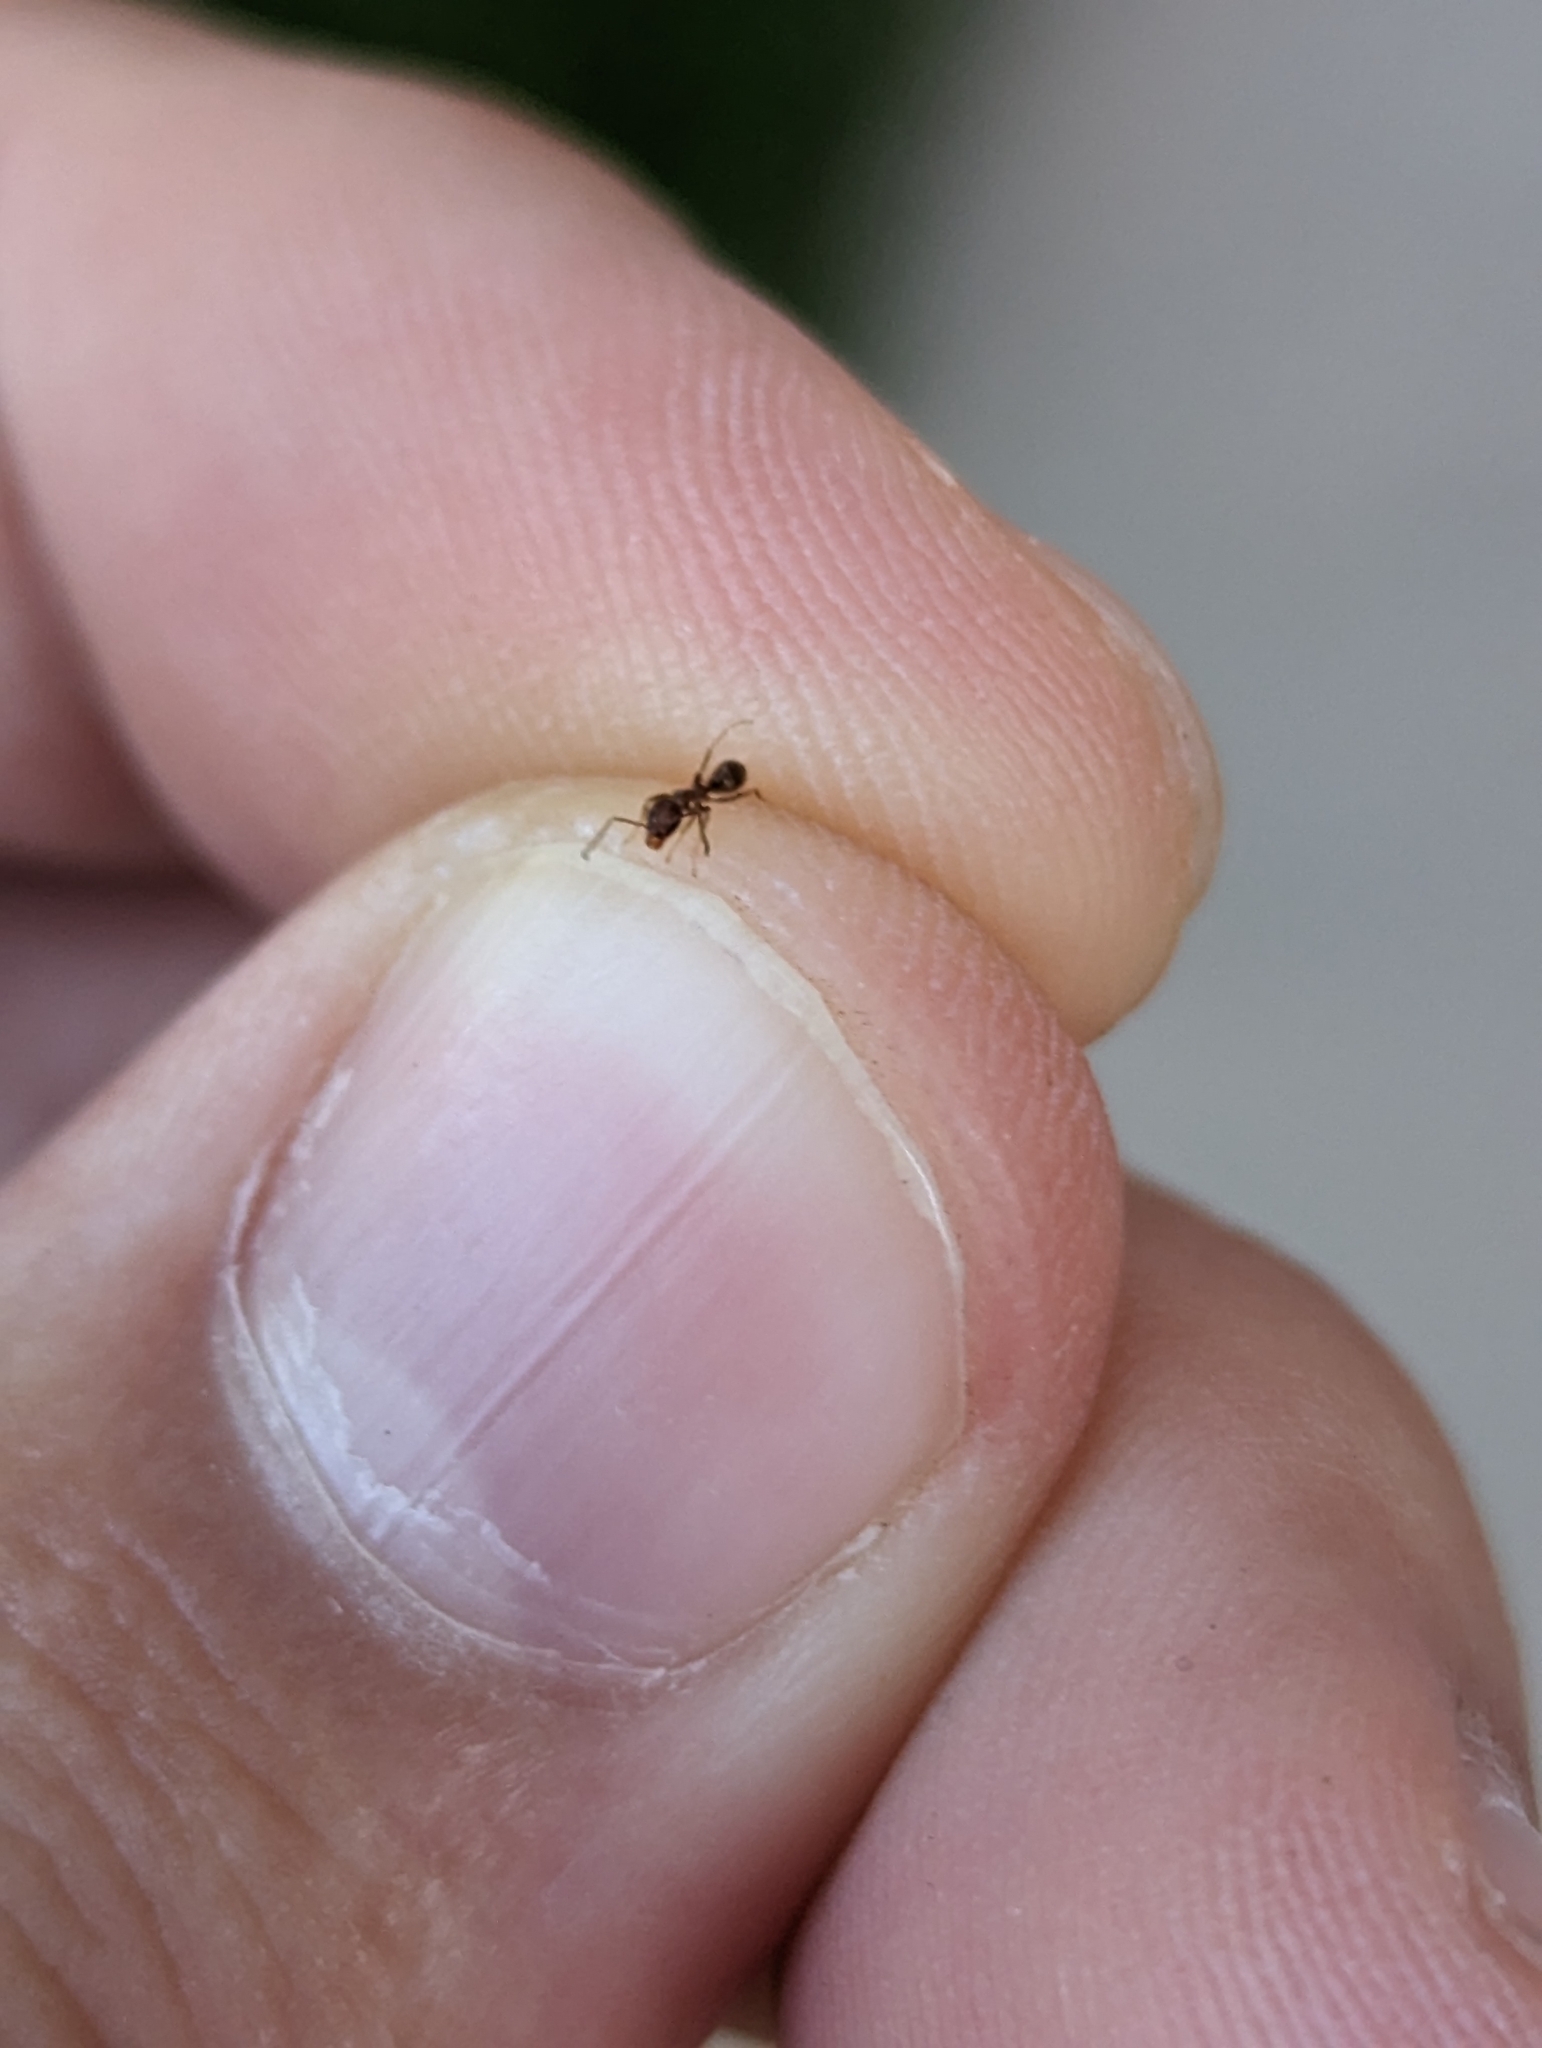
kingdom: Animalia
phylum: Arthropoda
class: Insecta
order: Hymenoptera
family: Formicidae
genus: Linepithema
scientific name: Linepithema humile
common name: Argentine ant
